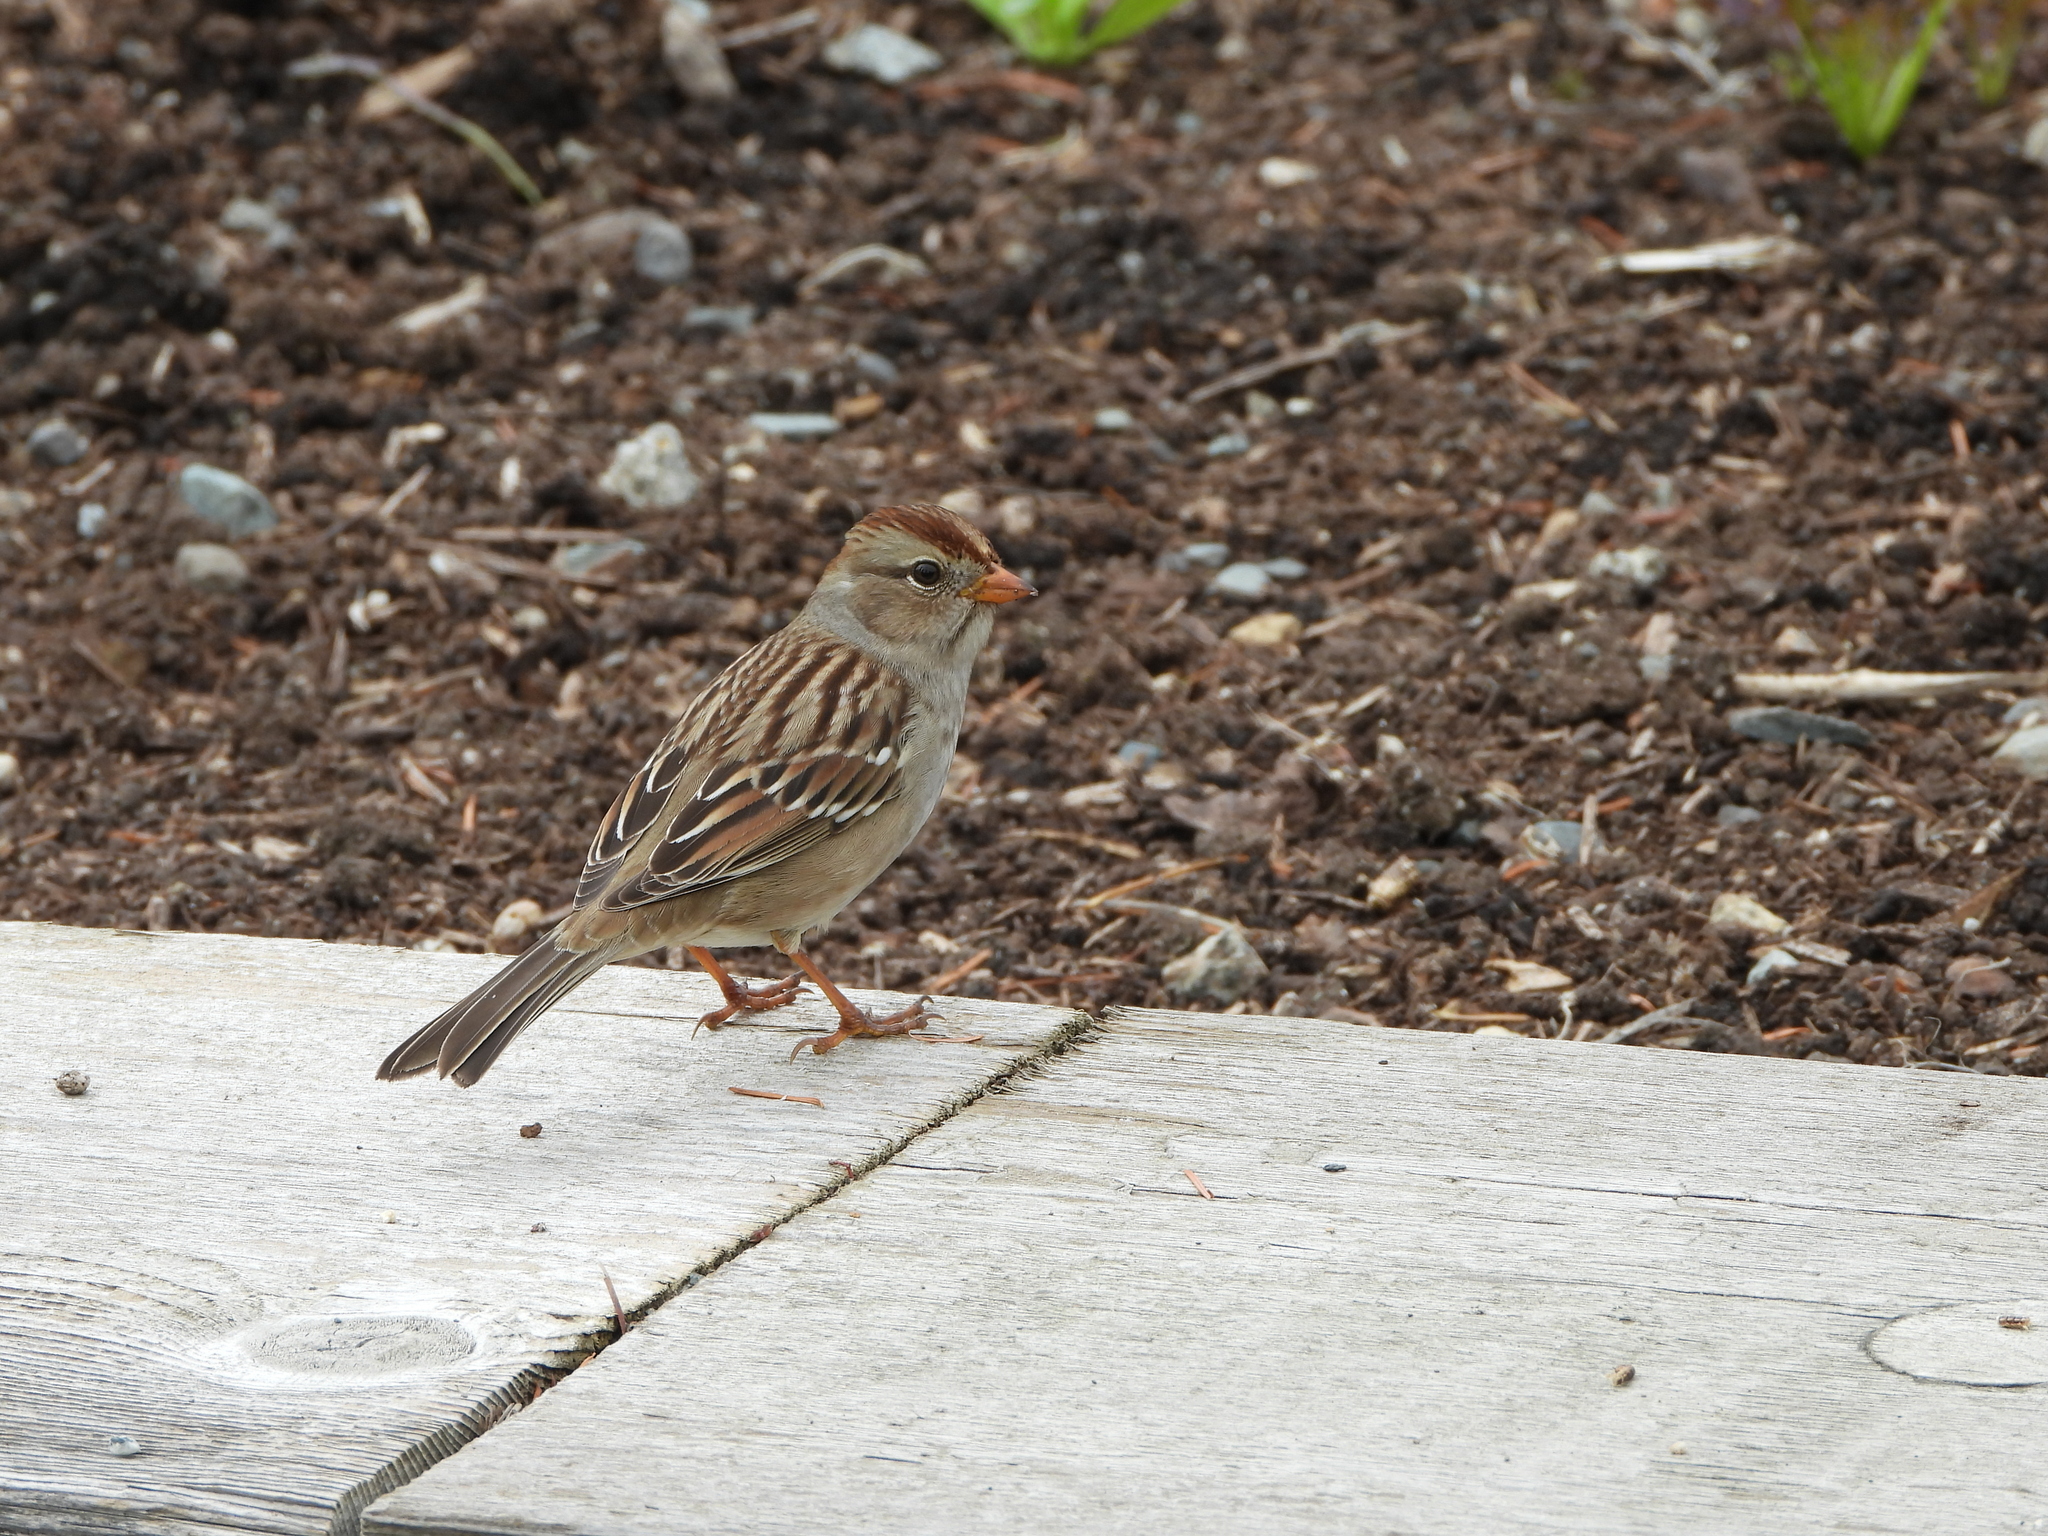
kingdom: Animalia
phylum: Chordata
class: Aves
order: Passeriformes
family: Passerellidae
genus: Zonotrichia
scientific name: Zonotrichia leucophrys
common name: White-crowned sparrow
